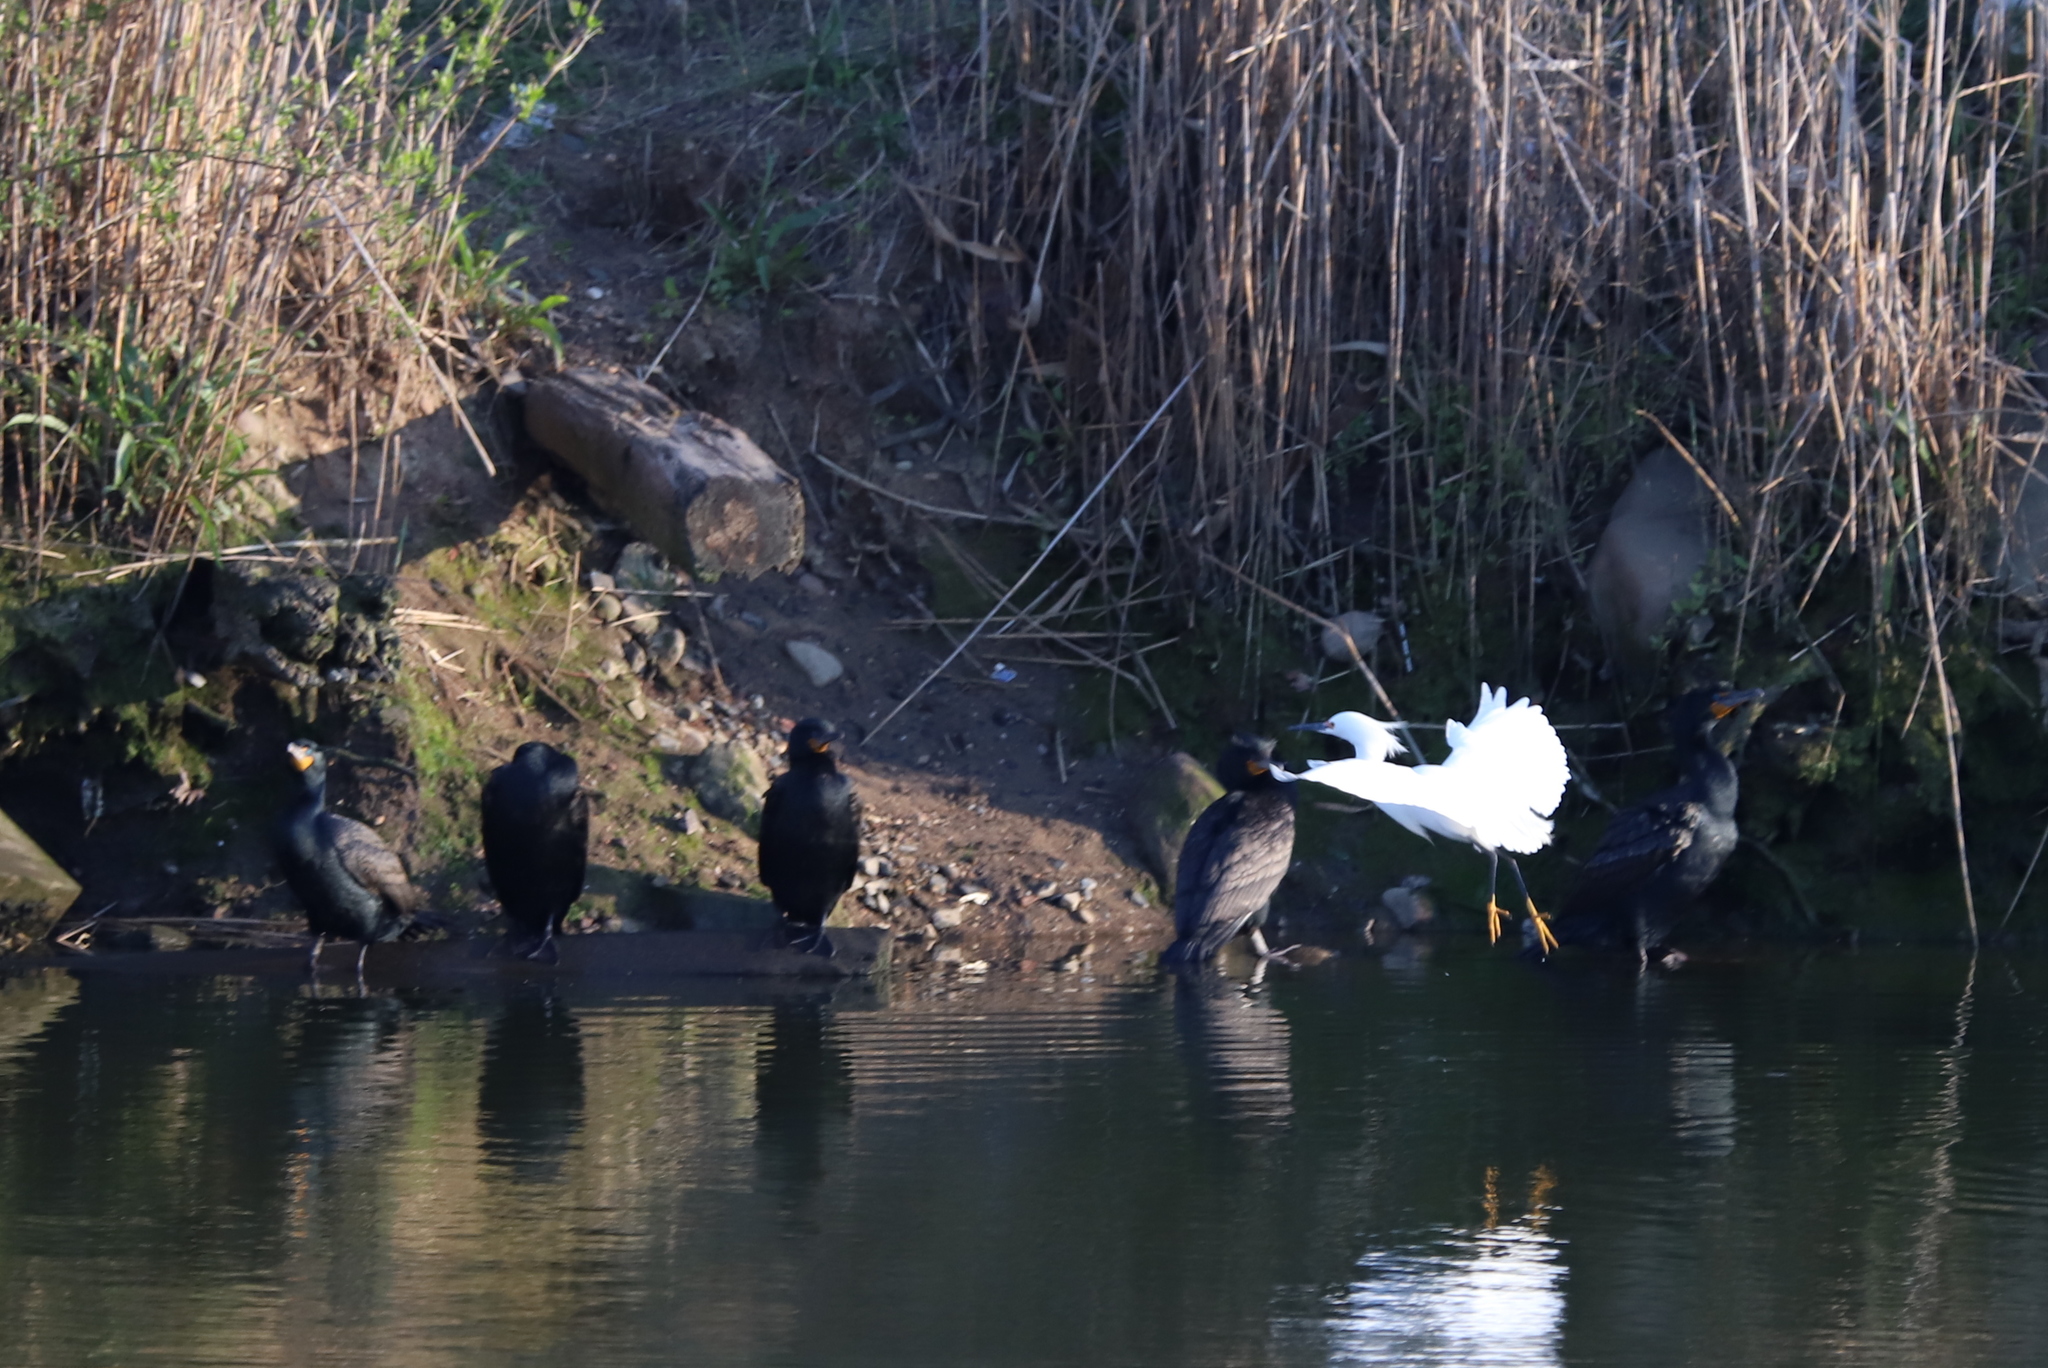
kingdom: Animalia
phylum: Chordata
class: Aves
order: Suliformes
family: Phalacrocoracidae
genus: Phalacrocorax
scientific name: Phalacrocorax auritus
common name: Double-crested cormorant
